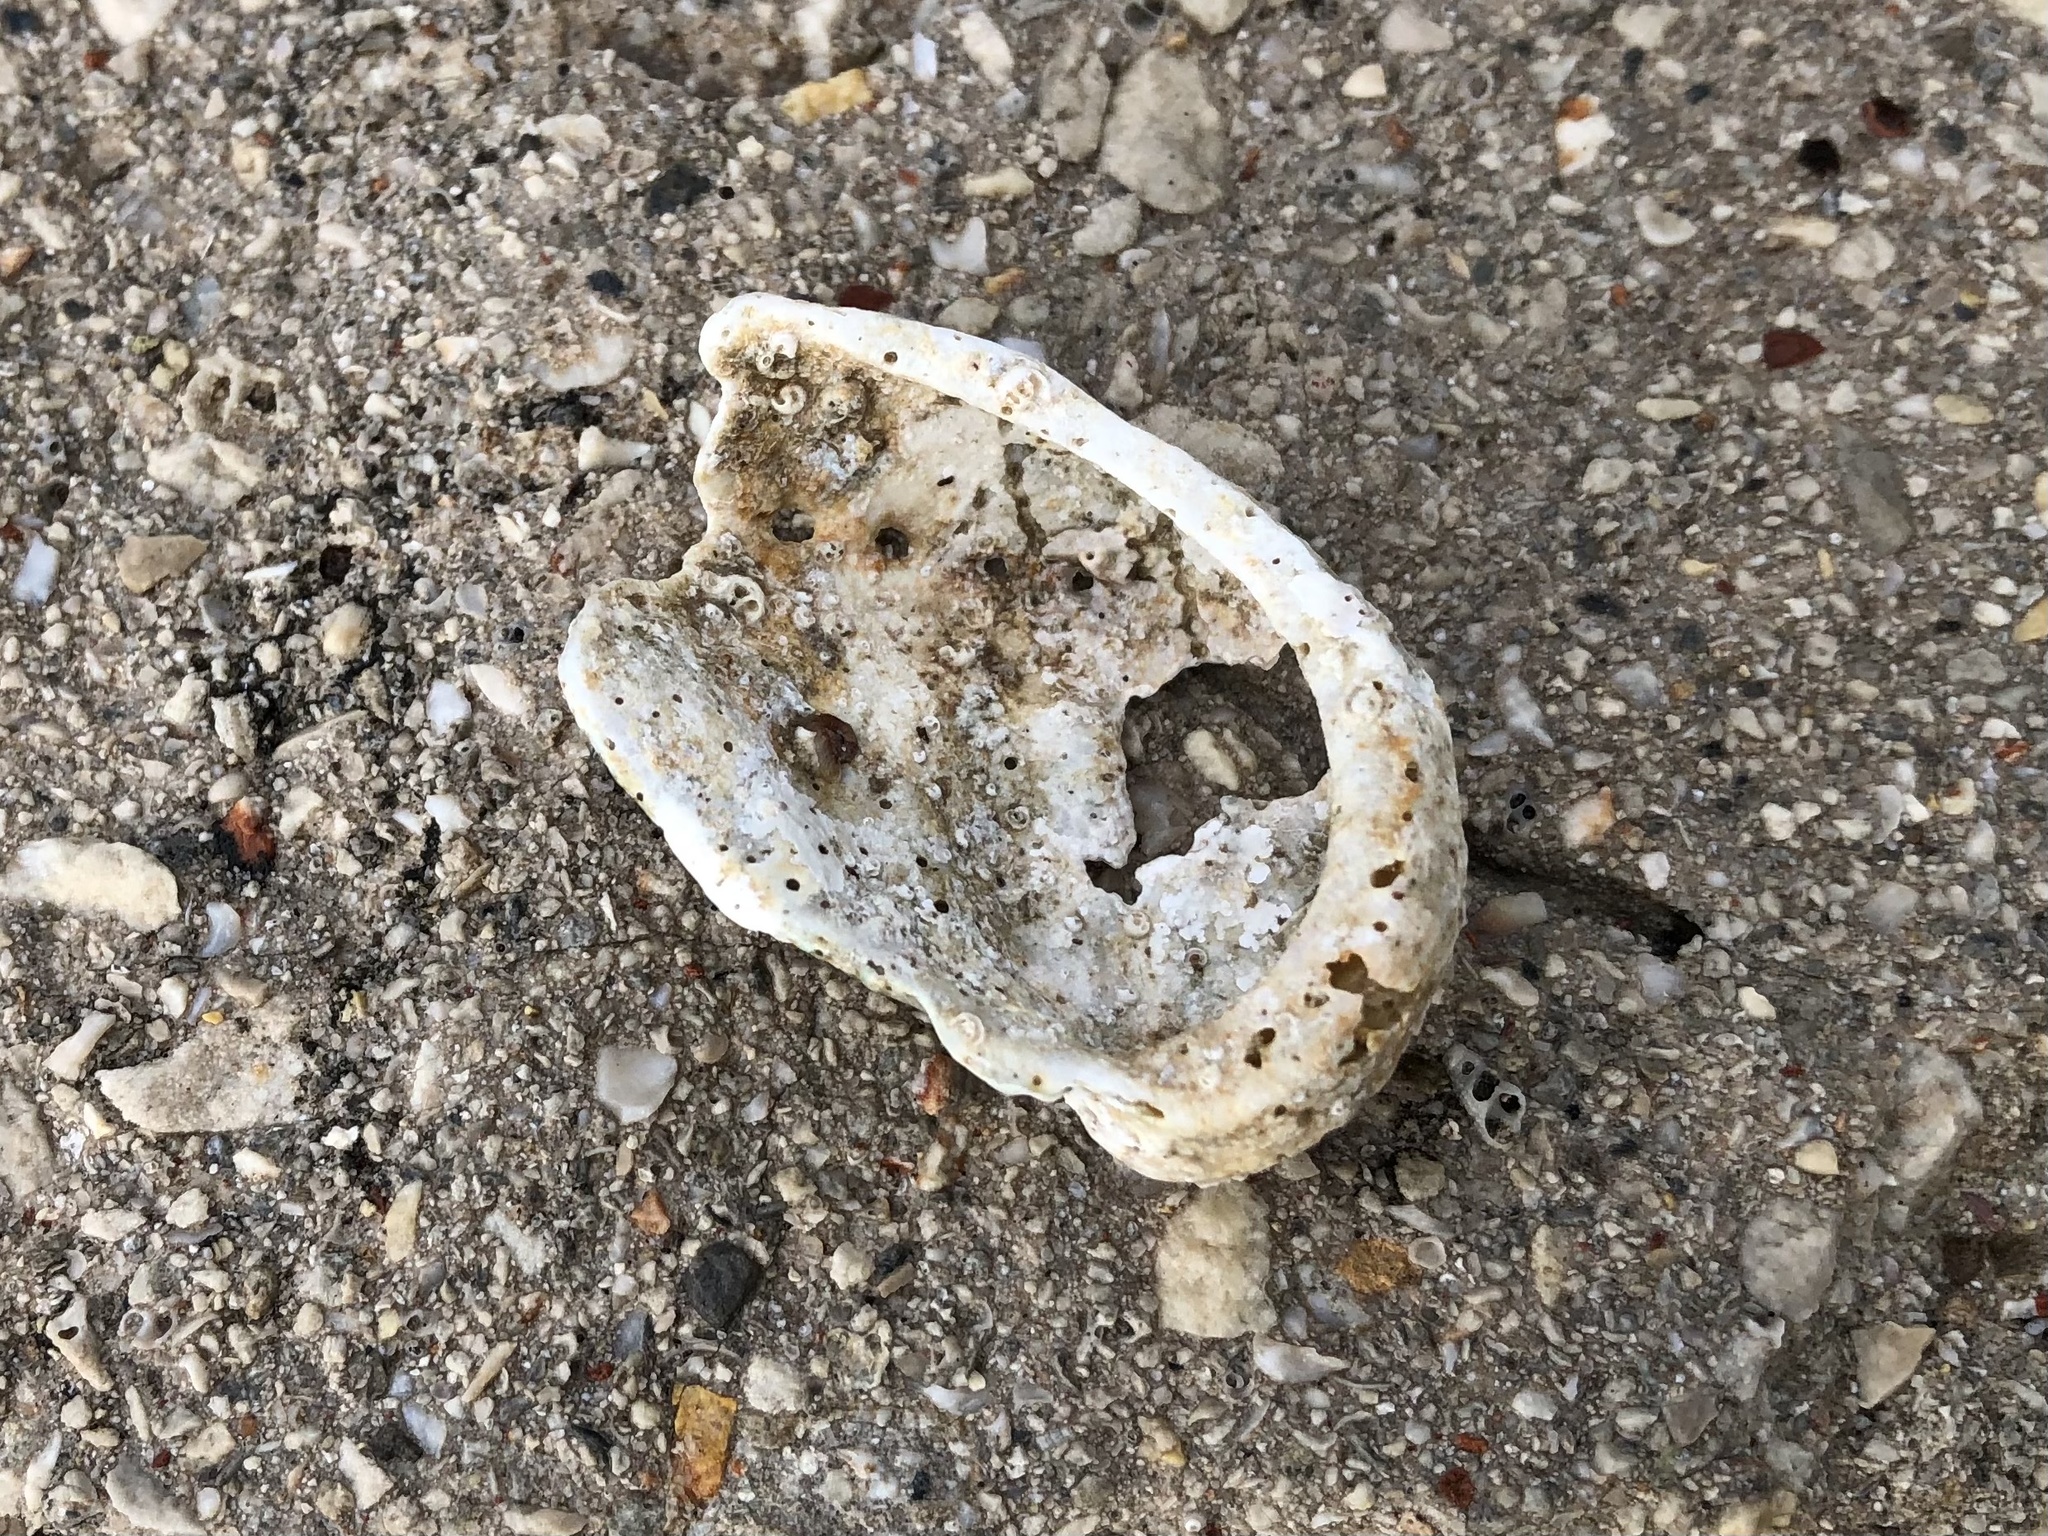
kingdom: Animalia
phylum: Mollusca
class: Gastropoda
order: Lepetellida
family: Haliotidae
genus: Haliotis
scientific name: Haliotis tuberculata
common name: Green ormer
